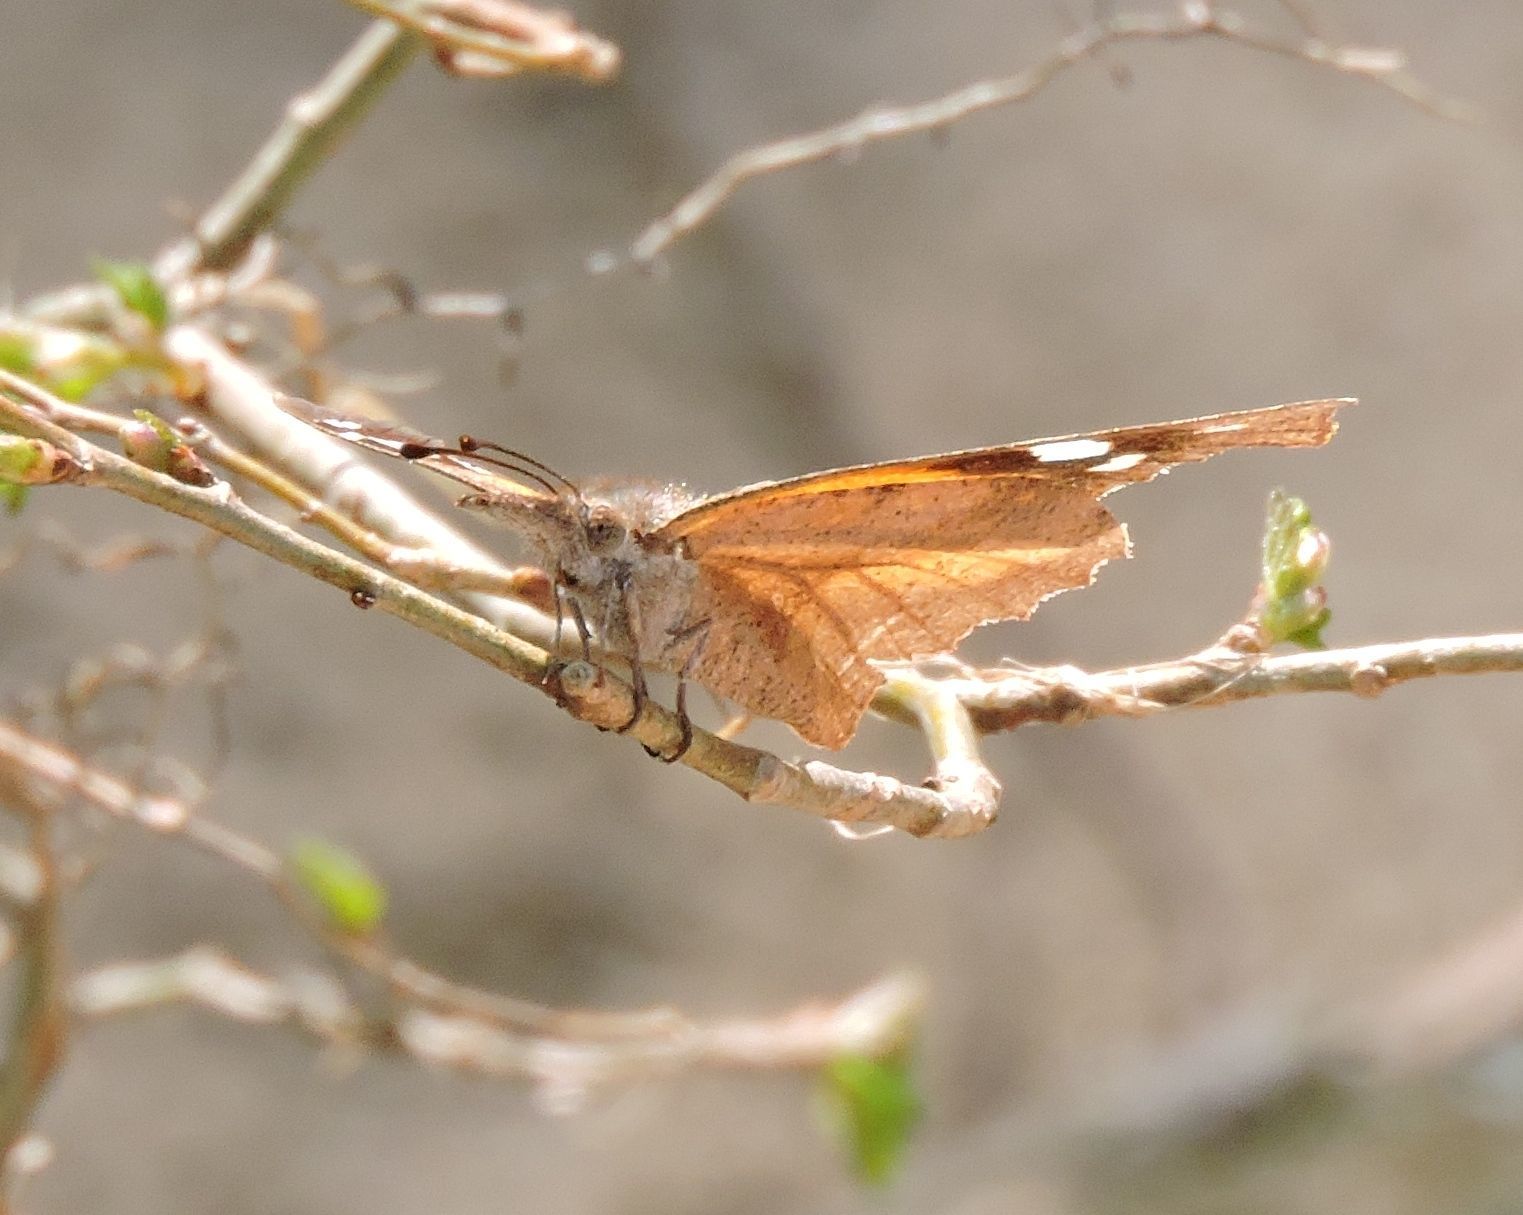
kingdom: Animalia
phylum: Arthropoda
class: Insecta
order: Lepidoptera
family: Nymphalidae
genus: Libytheana
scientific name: Libytheana carinenta
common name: American snout
